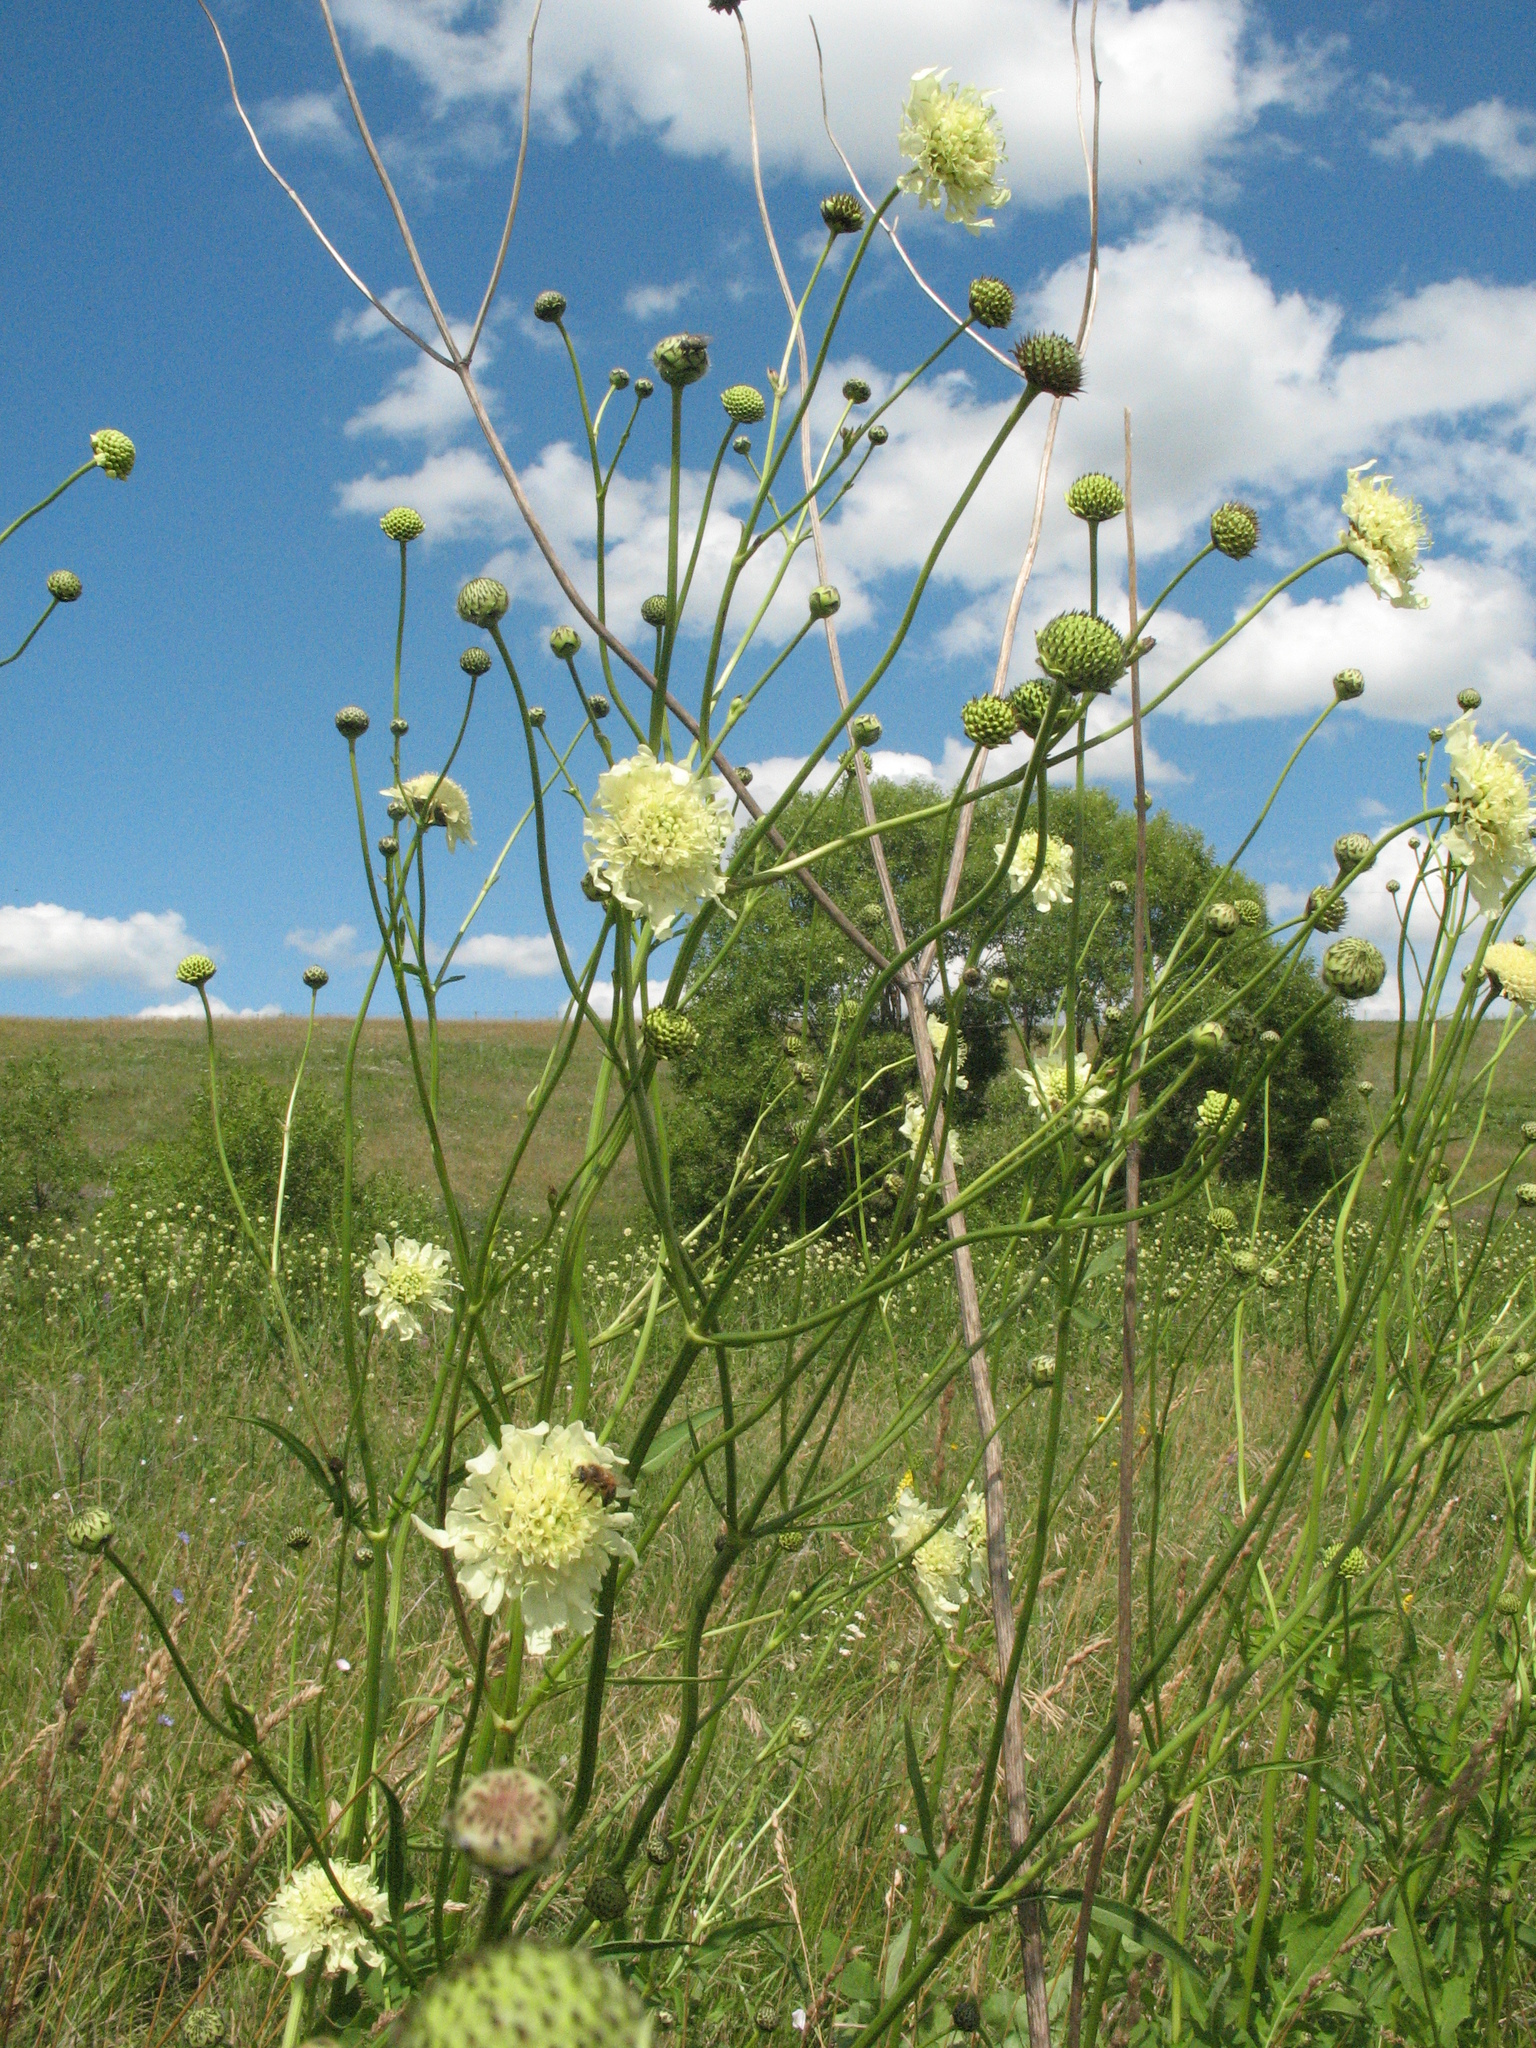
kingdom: Plantae
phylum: Tracheophyta
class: Magnoliopsida
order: Dipsacales
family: Caprifoliaceae
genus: Cephalaria
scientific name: Cephalaria litvinovii
